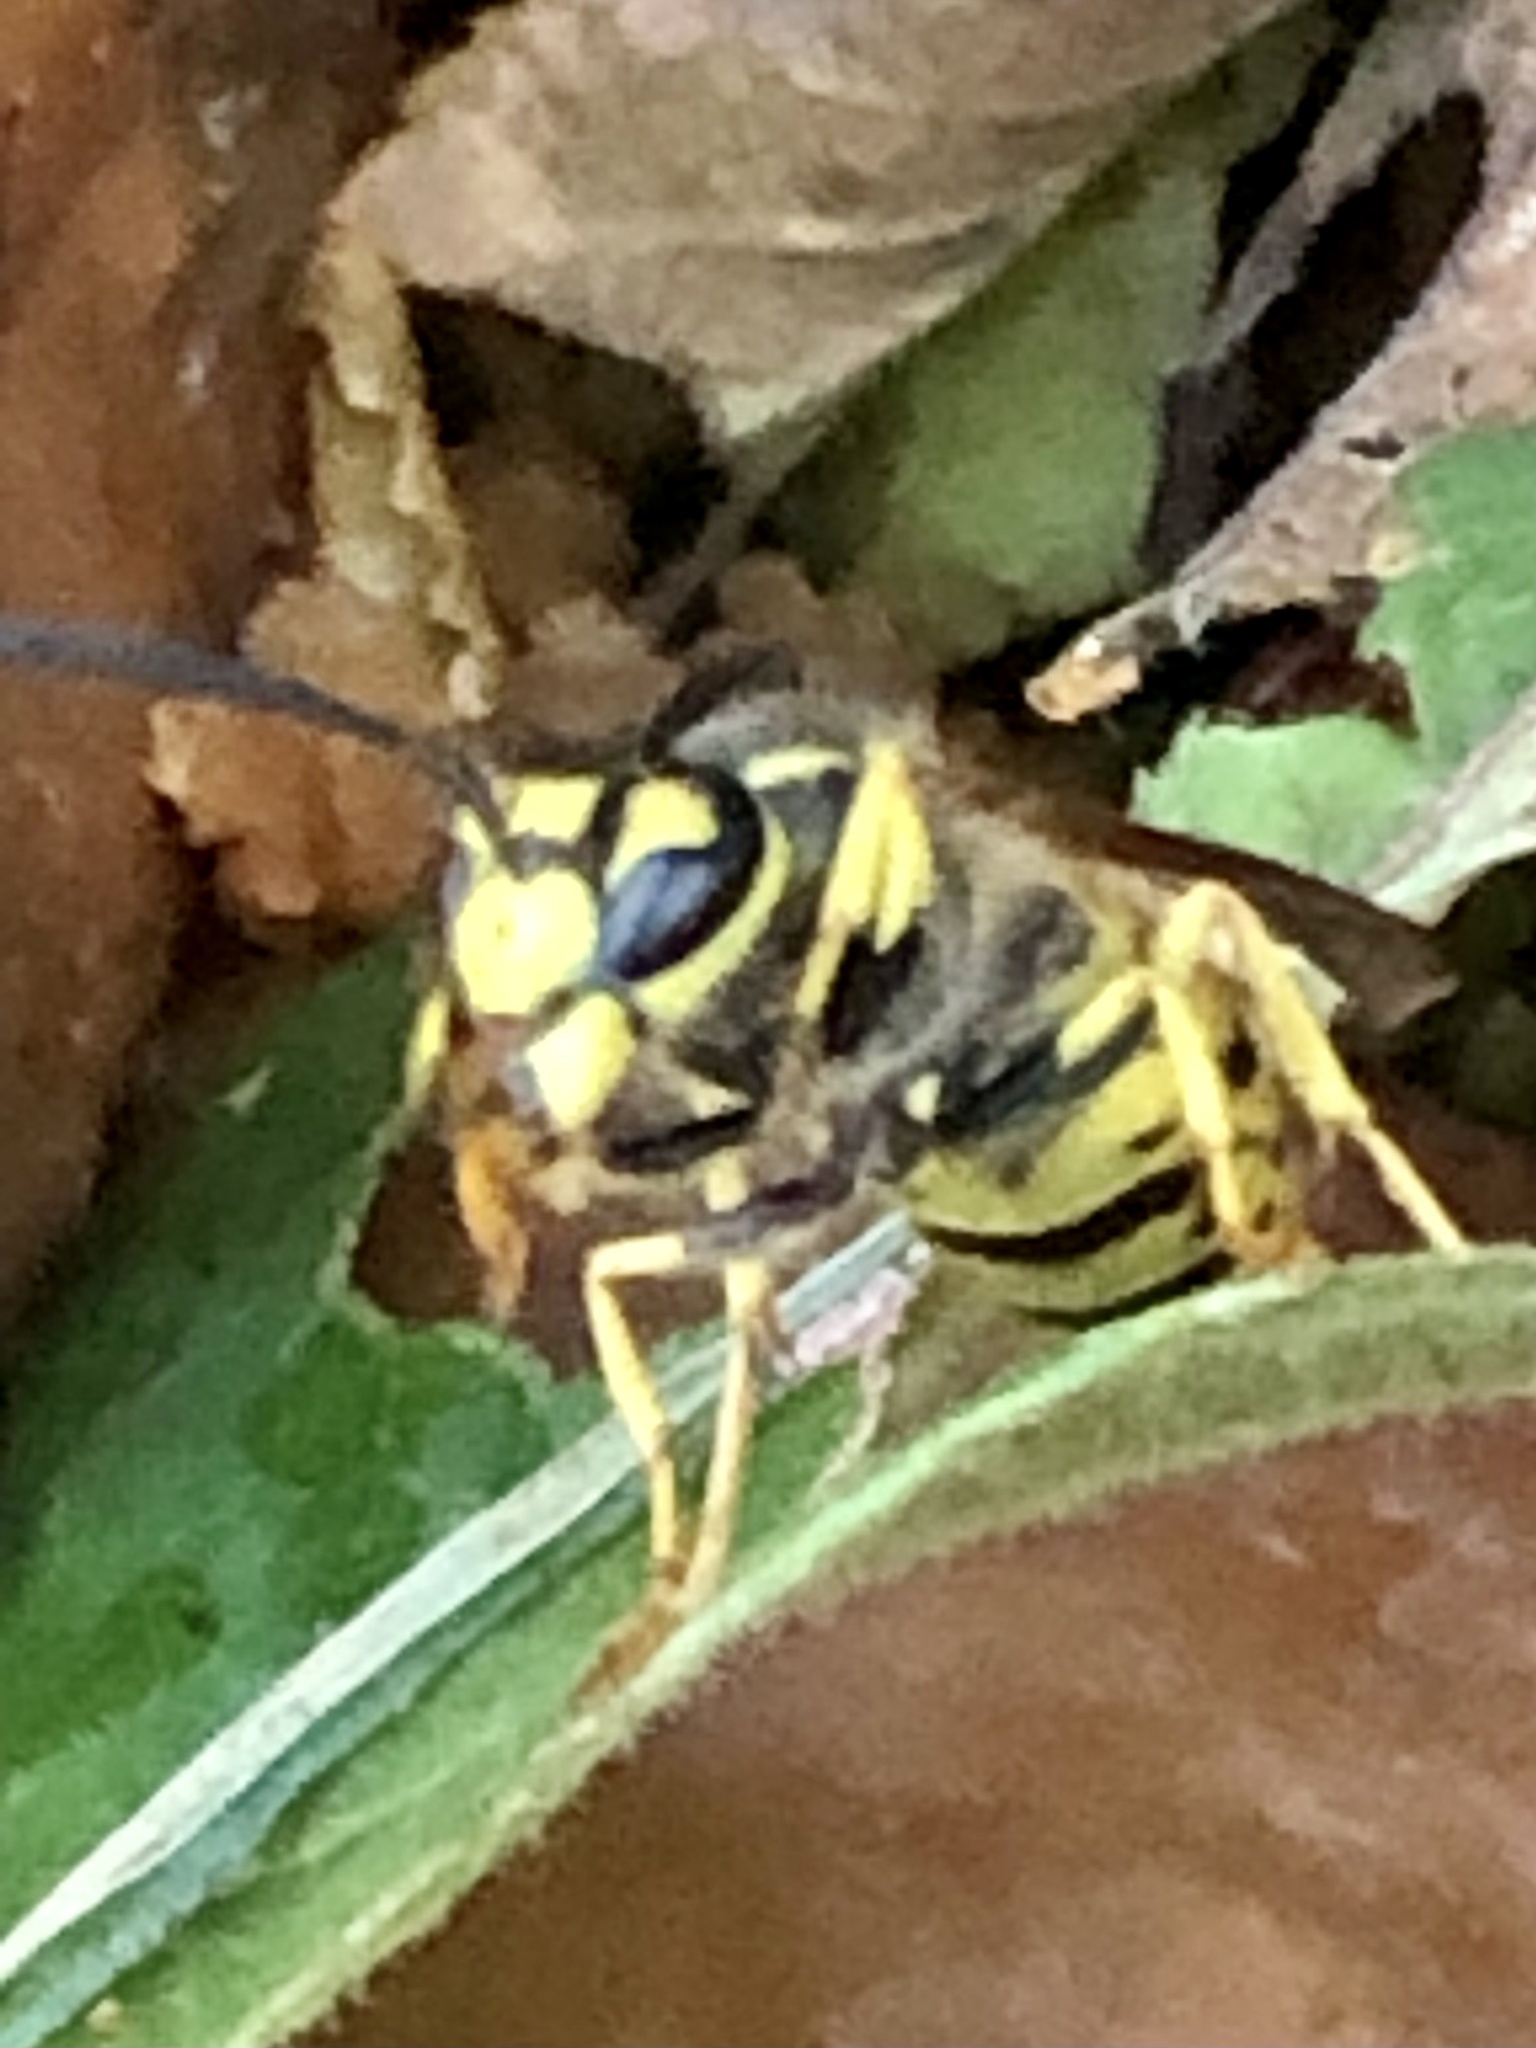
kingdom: Animalia
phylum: Arthropoda
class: Insecta
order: Hymenoptera
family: Vespidae
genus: Vespula
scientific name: Vespula germanica
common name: German wasp
